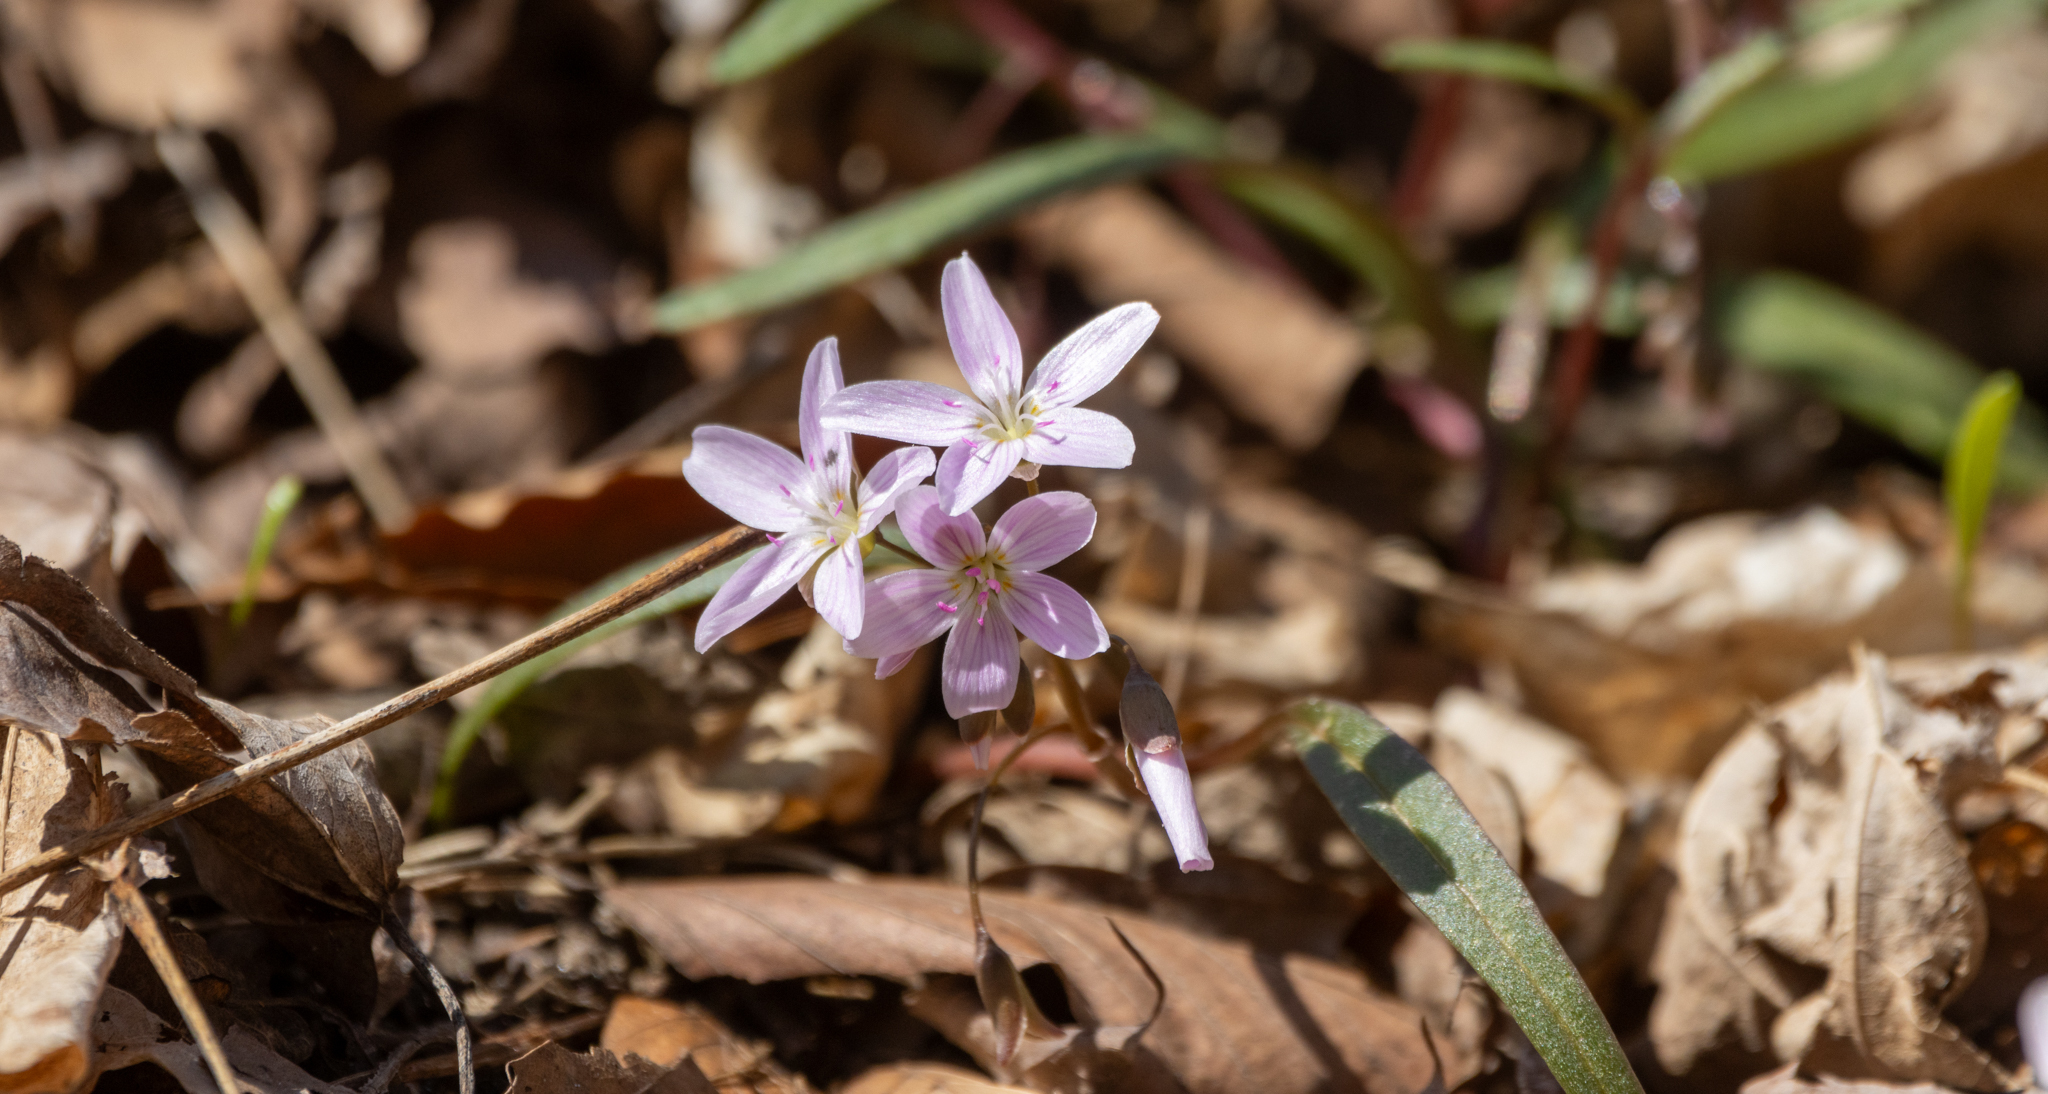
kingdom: Plantae
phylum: Tracheophyta
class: Magnoliopsida
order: Caryophyllales
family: Montiaceae
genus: Claytonia
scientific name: Claytonia virginica
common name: Virginia springbeauty
